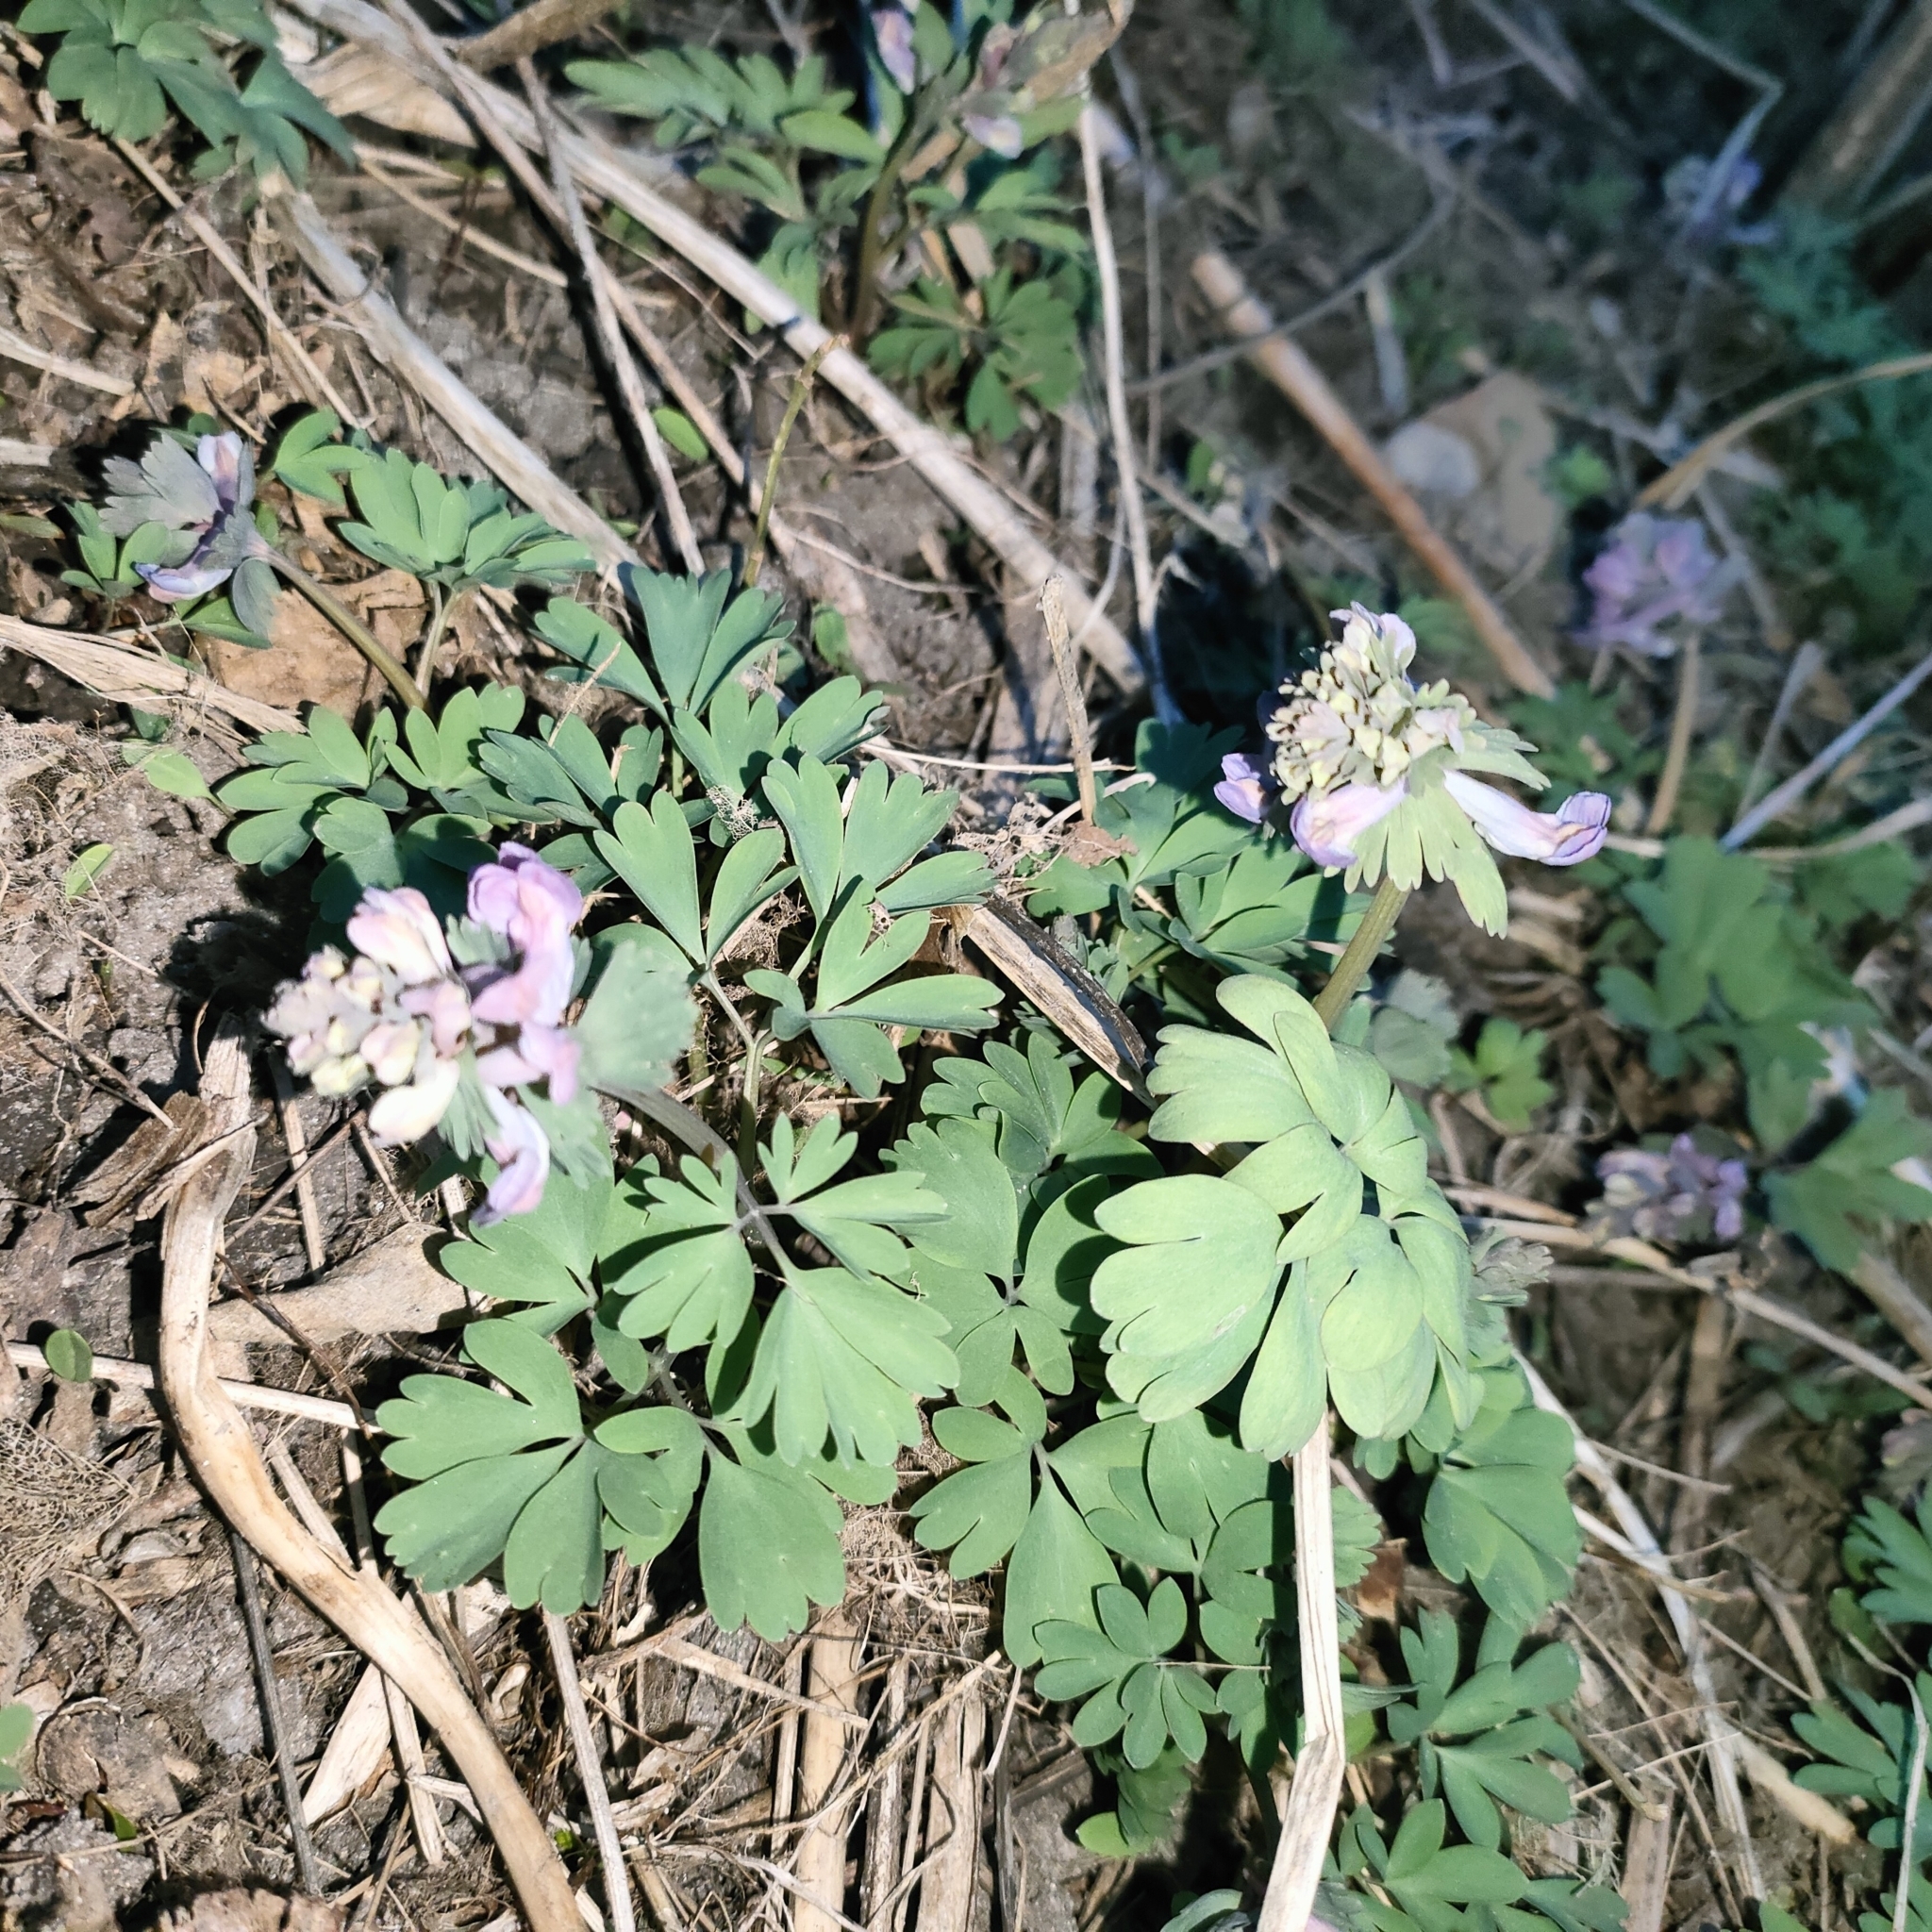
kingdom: Plantae
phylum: Tracheophyta
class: Magnoliopsida
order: Ranunculales
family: Papaveraceae
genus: Corydalis
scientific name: Corydalis solida
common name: Bird-in-a-bush
